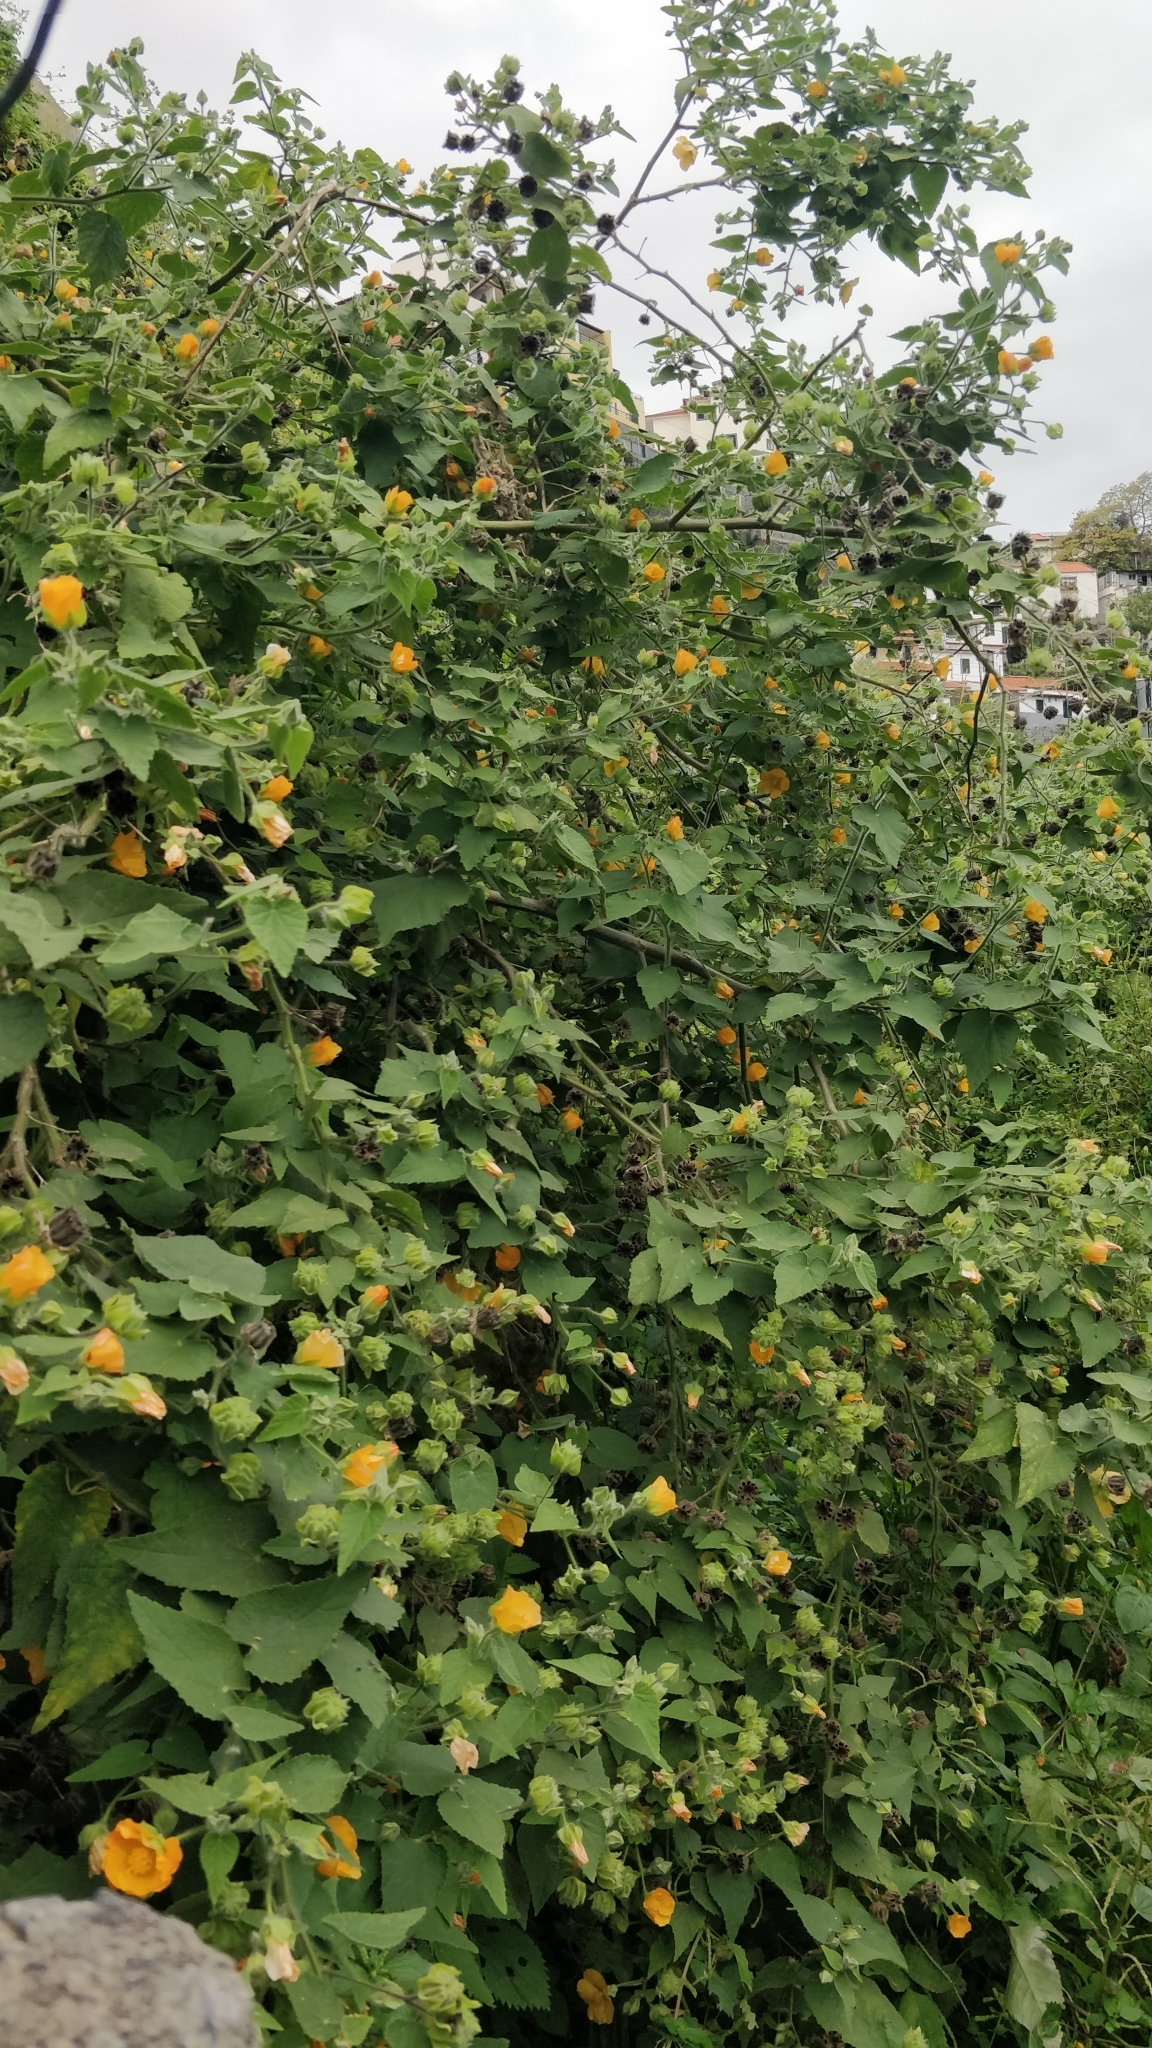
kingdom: Plantae
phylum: Tracheophyta
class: Magnoliopsida
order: Malvales
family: Malvaceae
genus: Abutilon
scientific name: Abutilon grandifolium
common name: Hairy abutilon
